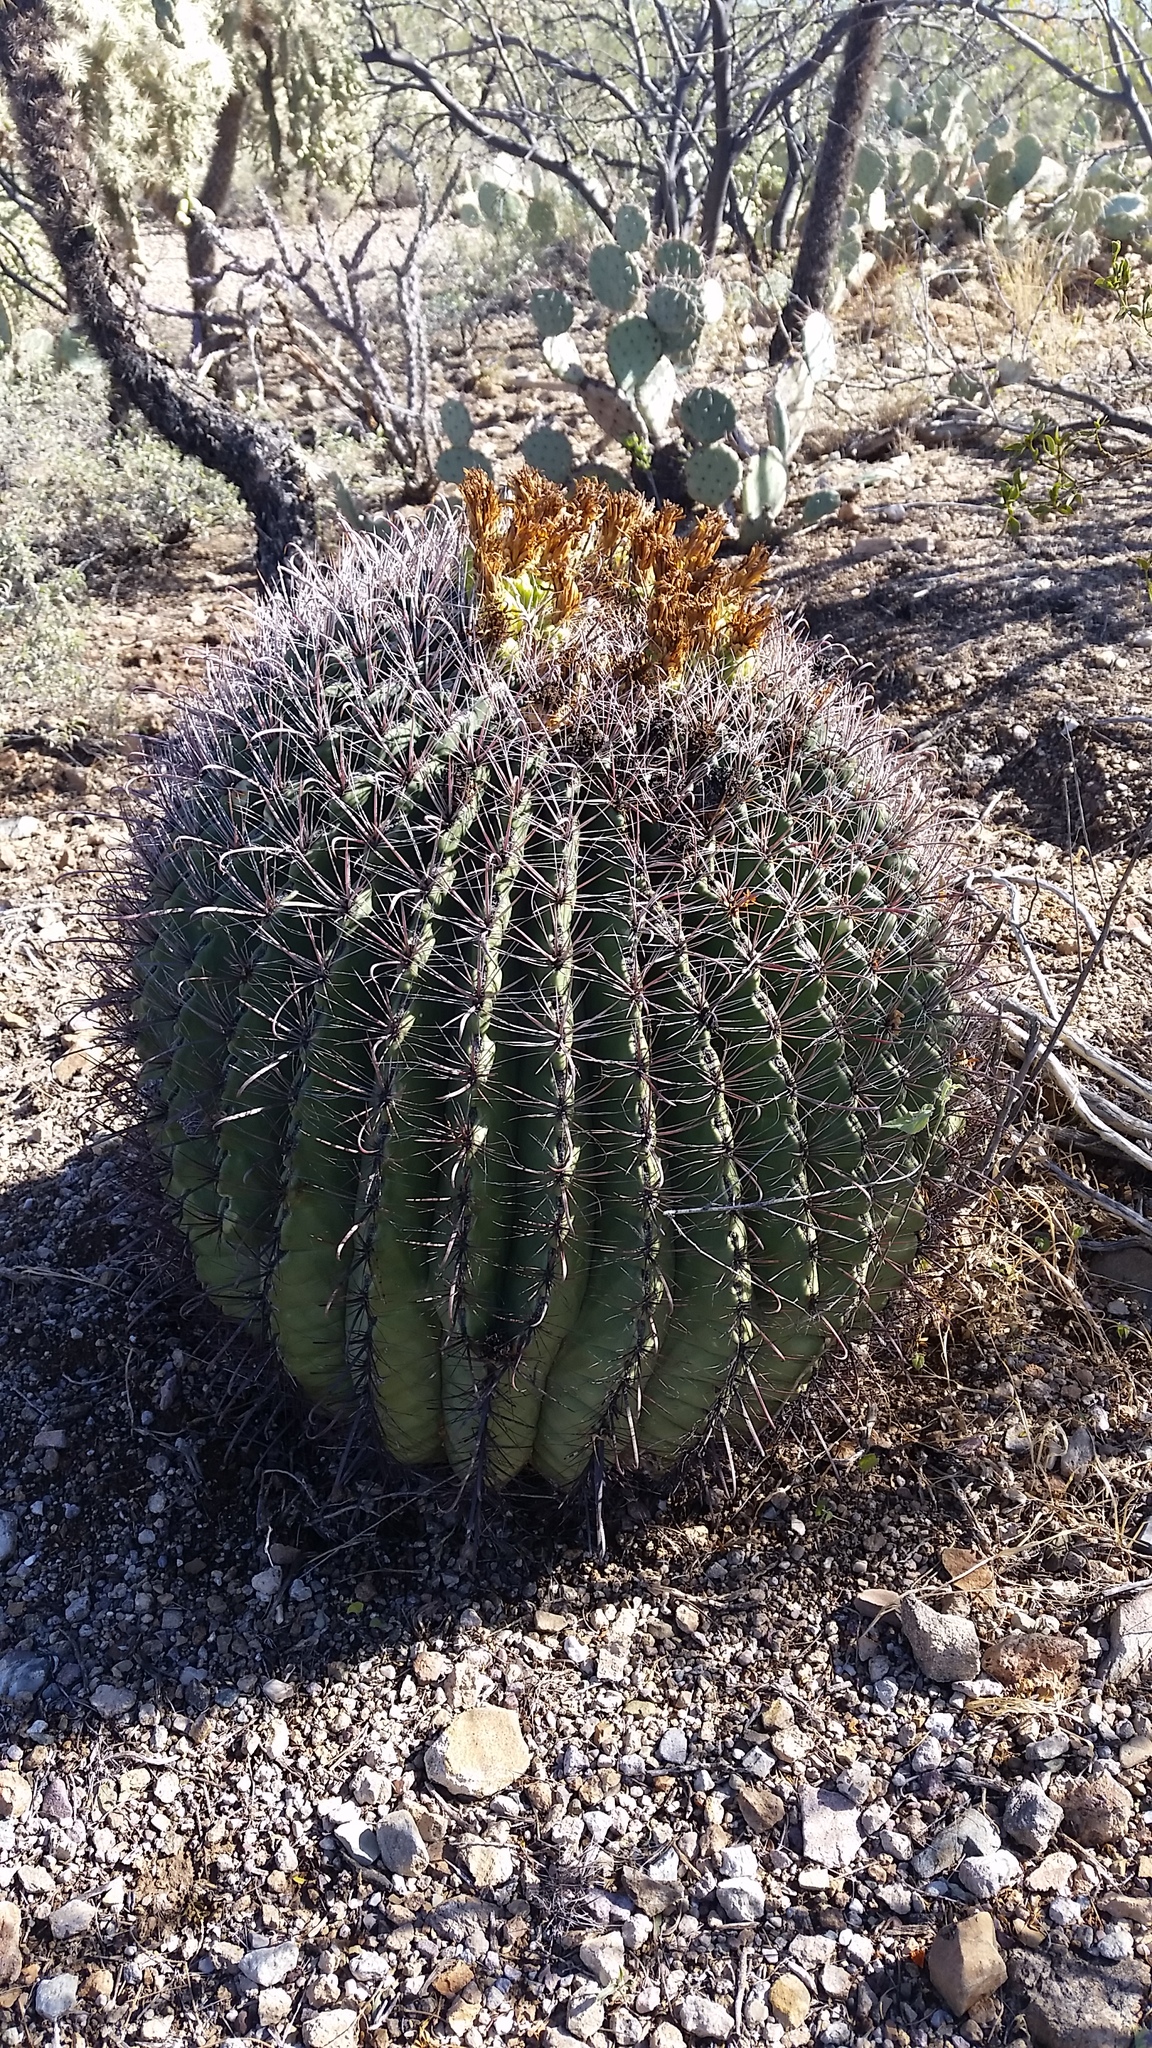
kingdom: Plantae
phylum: Tracheophyta
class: Magnoliopsida
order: Caryophyllales
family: Cactaceae
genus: Ferocactus
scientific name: Ferocactus wislizeni
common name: Candy barrel cactus
